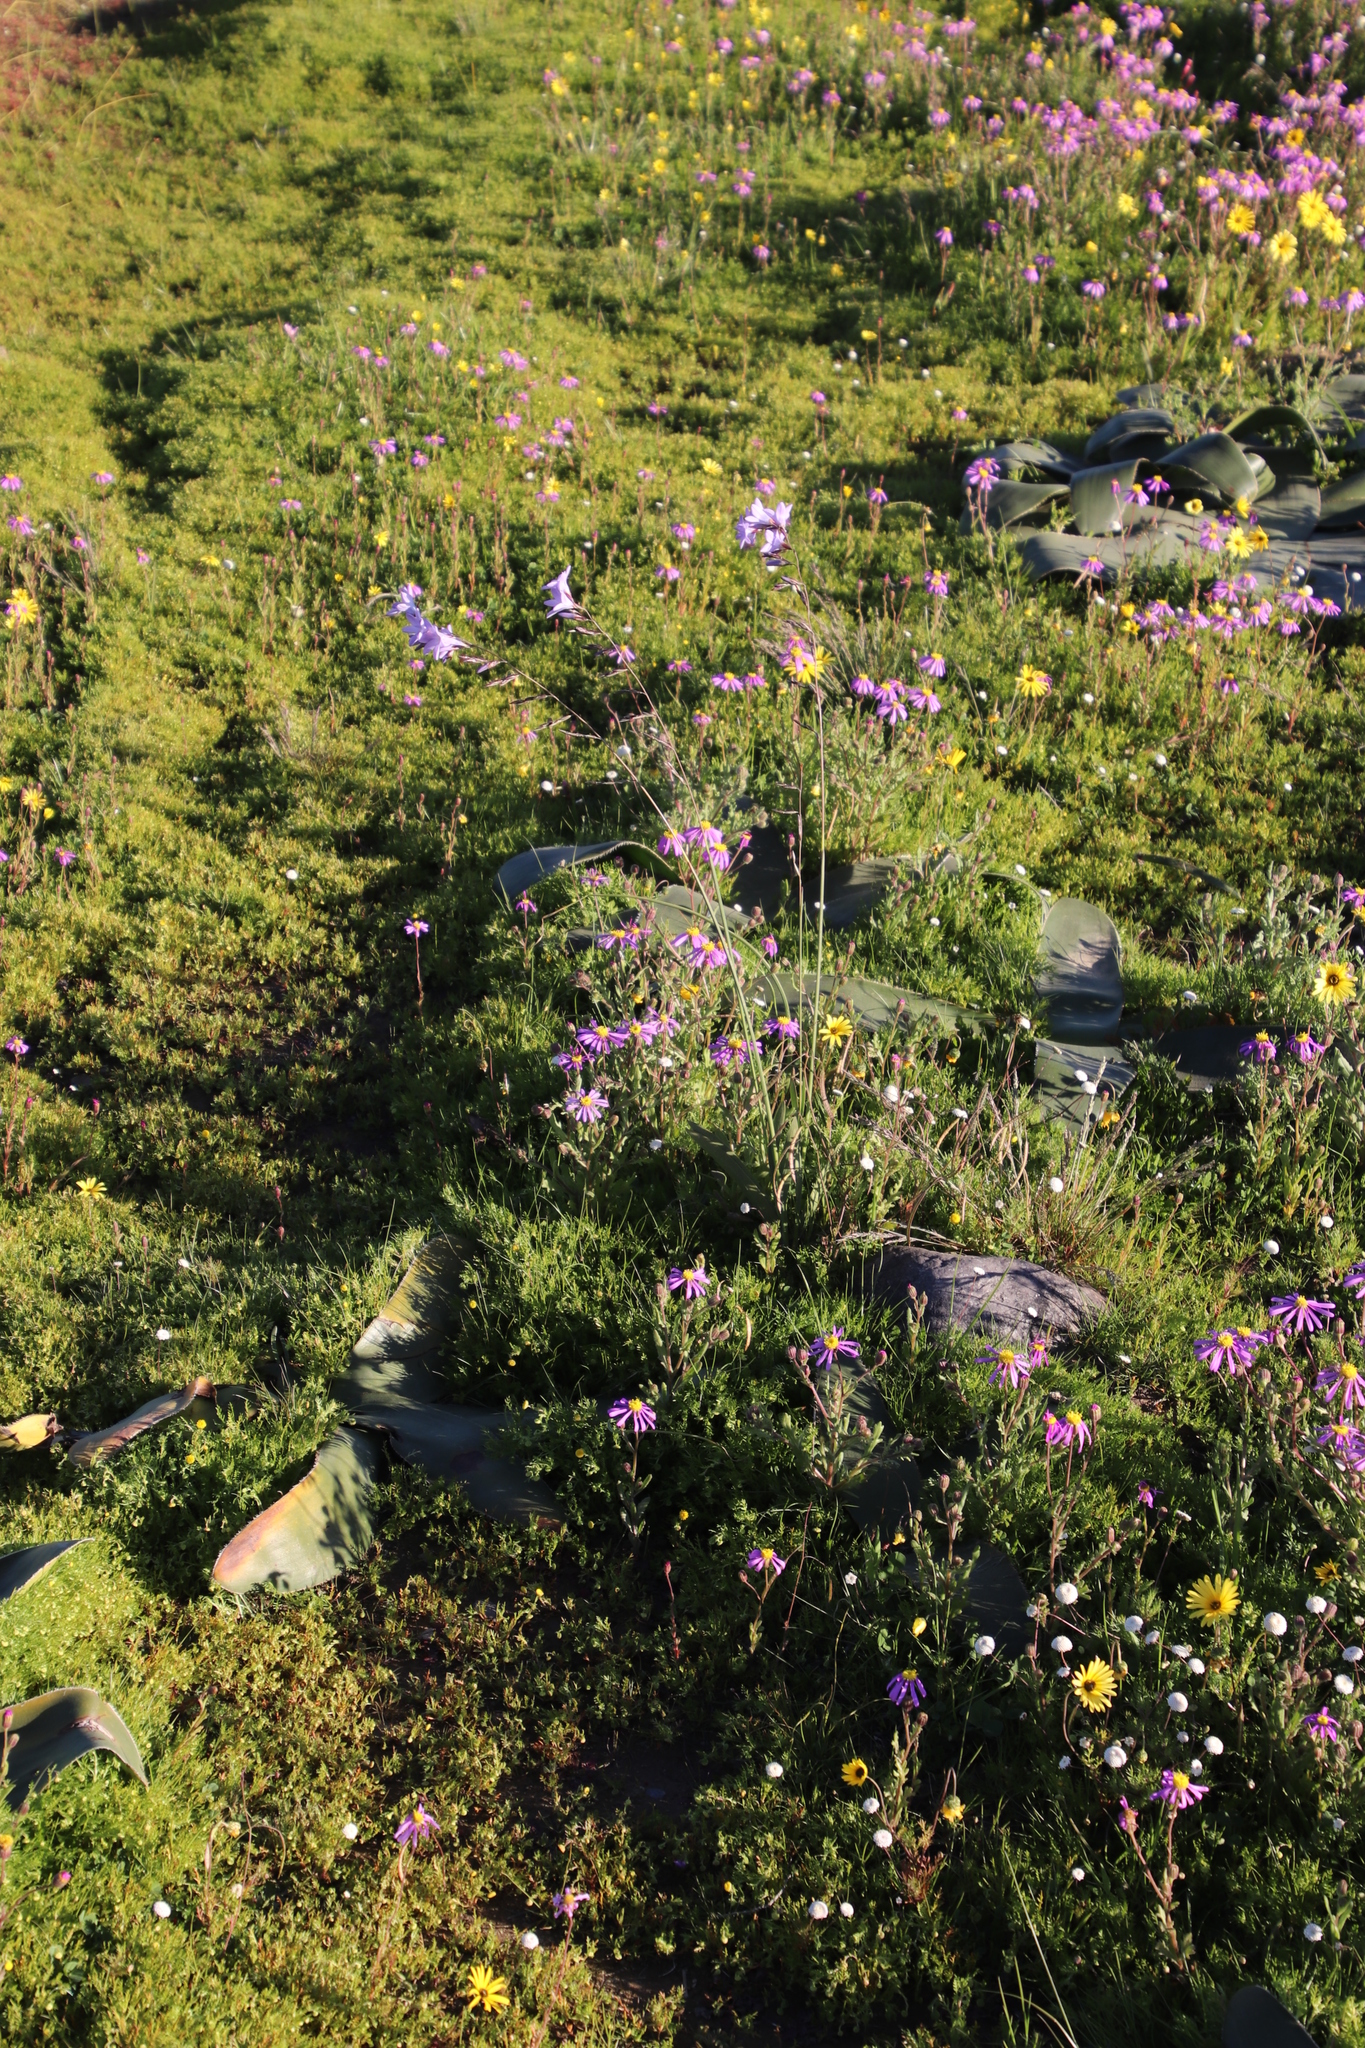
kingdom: Plantae
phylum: Tracheophyta
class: Liliopsida
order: Asparagales
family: Iridaceae
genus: Ixia
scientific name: Ixia rapunculoides
